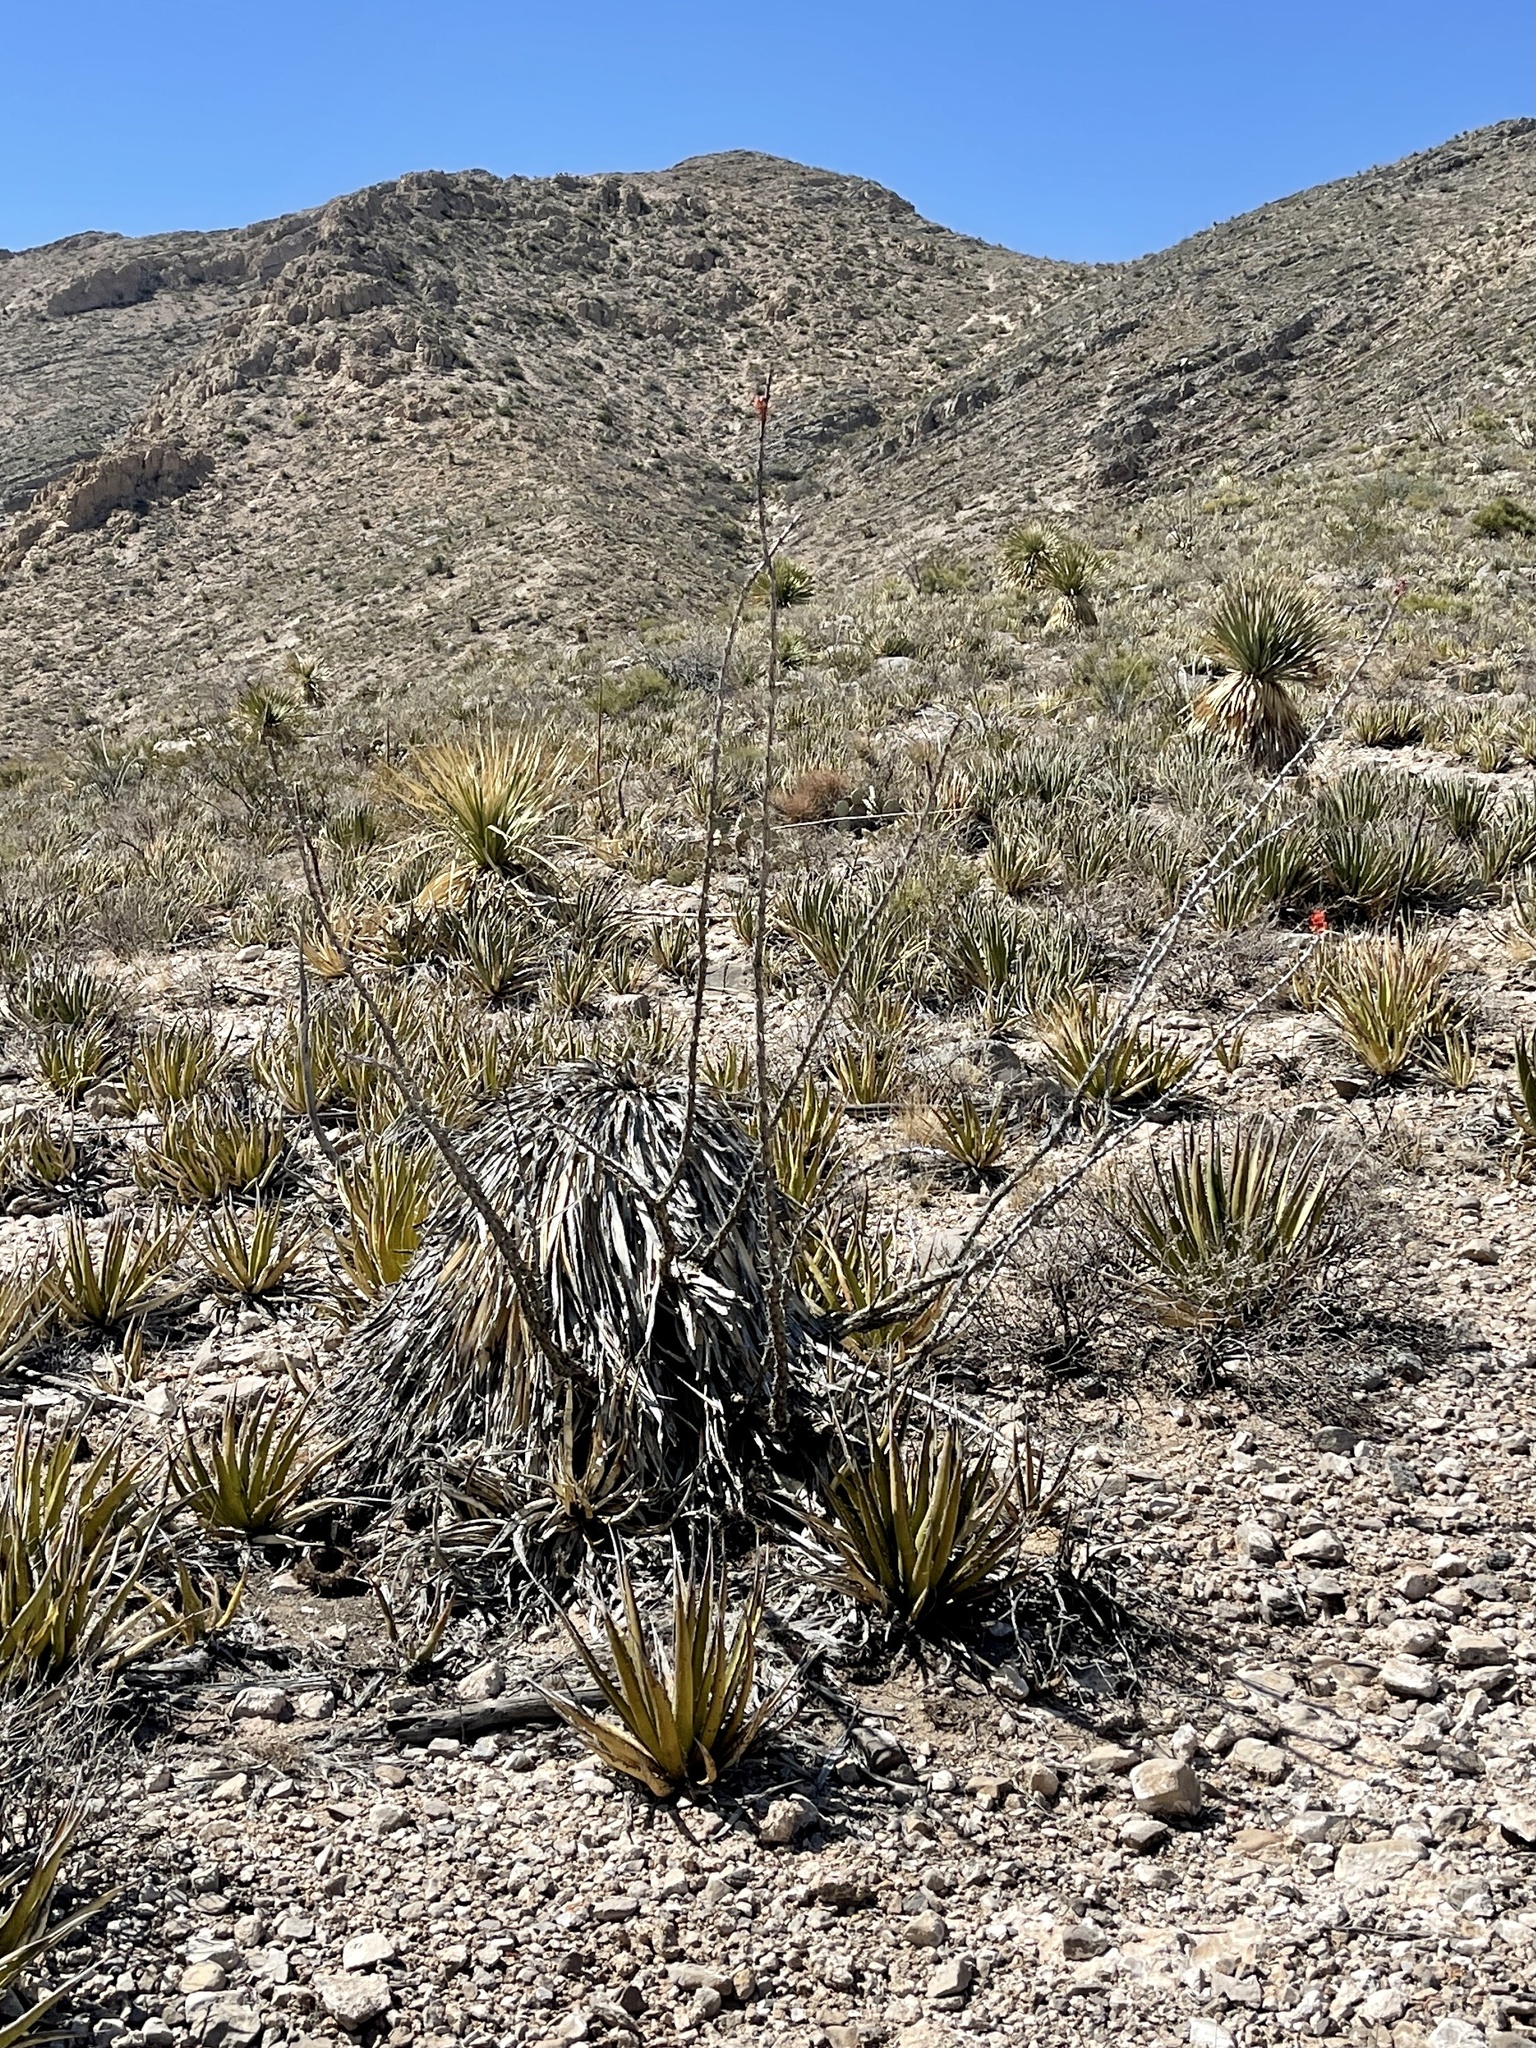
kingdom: Plantae
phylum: Tracheophyta
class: Magnoliopsida
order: Ericales
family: Fouquieriaceae
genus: Fouquieria
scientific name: Fouquieria splendens
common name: Vine-cactus
